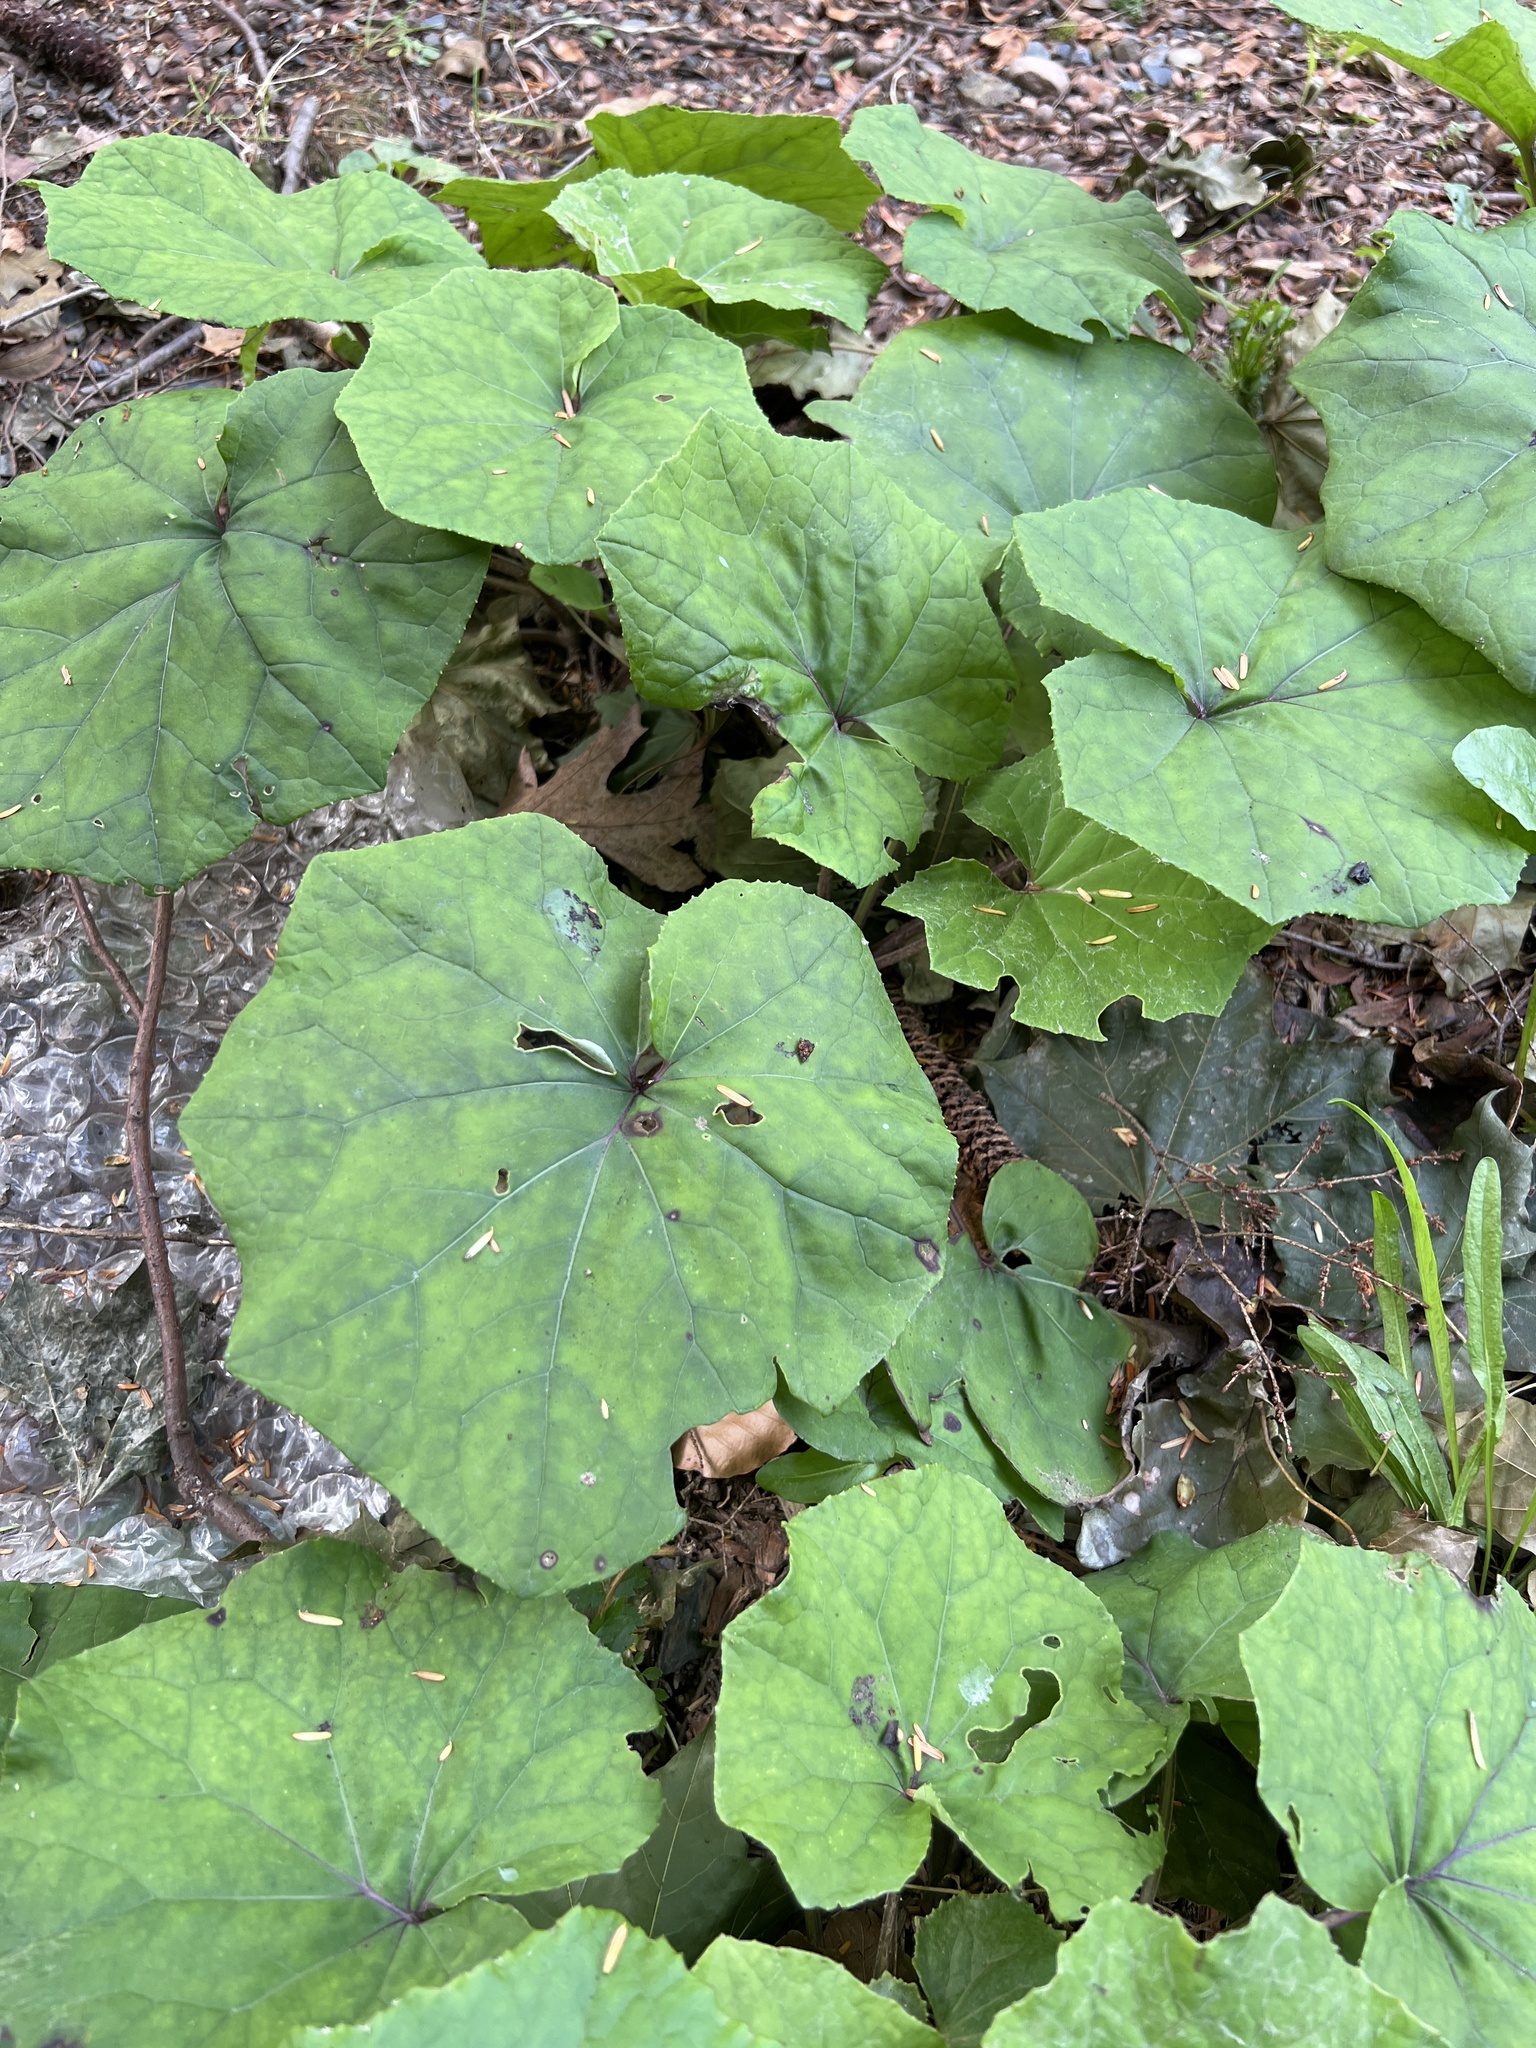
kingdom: Plantae
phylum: Tracheophyta
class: Magnoliopsida
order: Asterales
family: Asteraceae
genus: Tussilago
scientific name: Tussilago farfara
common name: Coltsfoot
